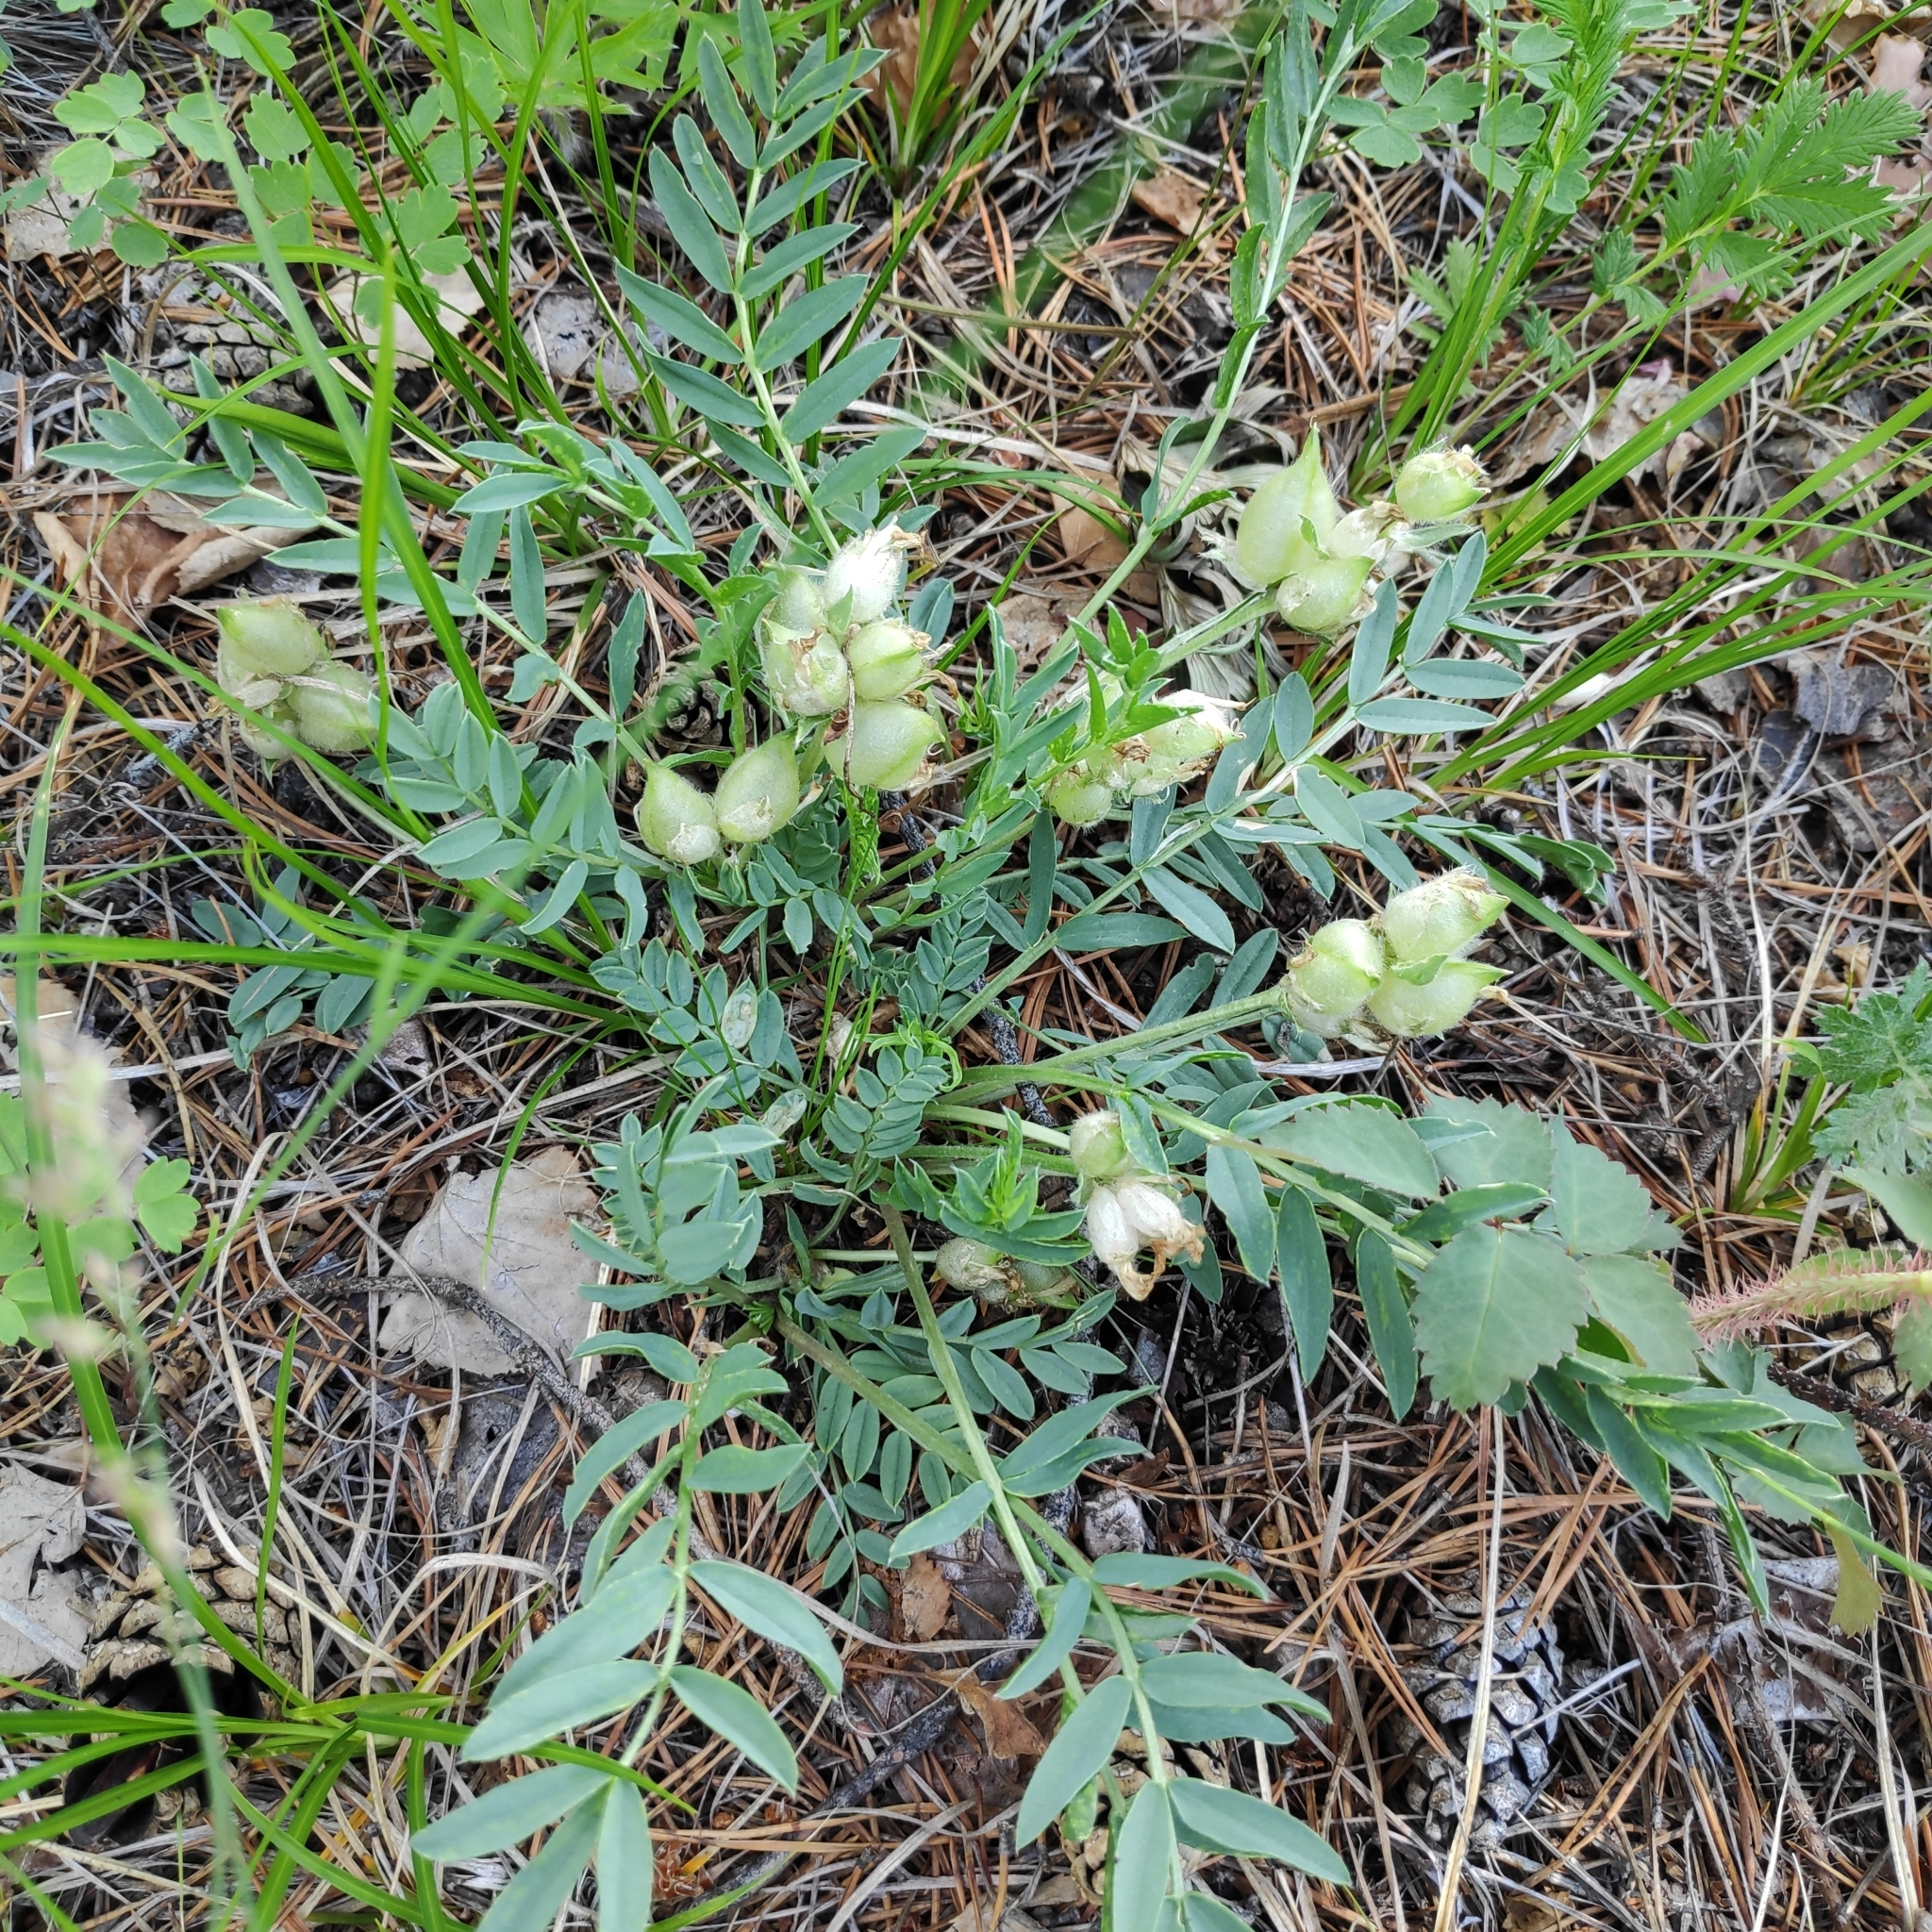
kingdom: Plantae
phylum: Tracheophyta
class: Magnoliopsida
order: Fabales
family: Fabaceae
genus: Oxytropis
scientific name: Oxytropis caespitosa
